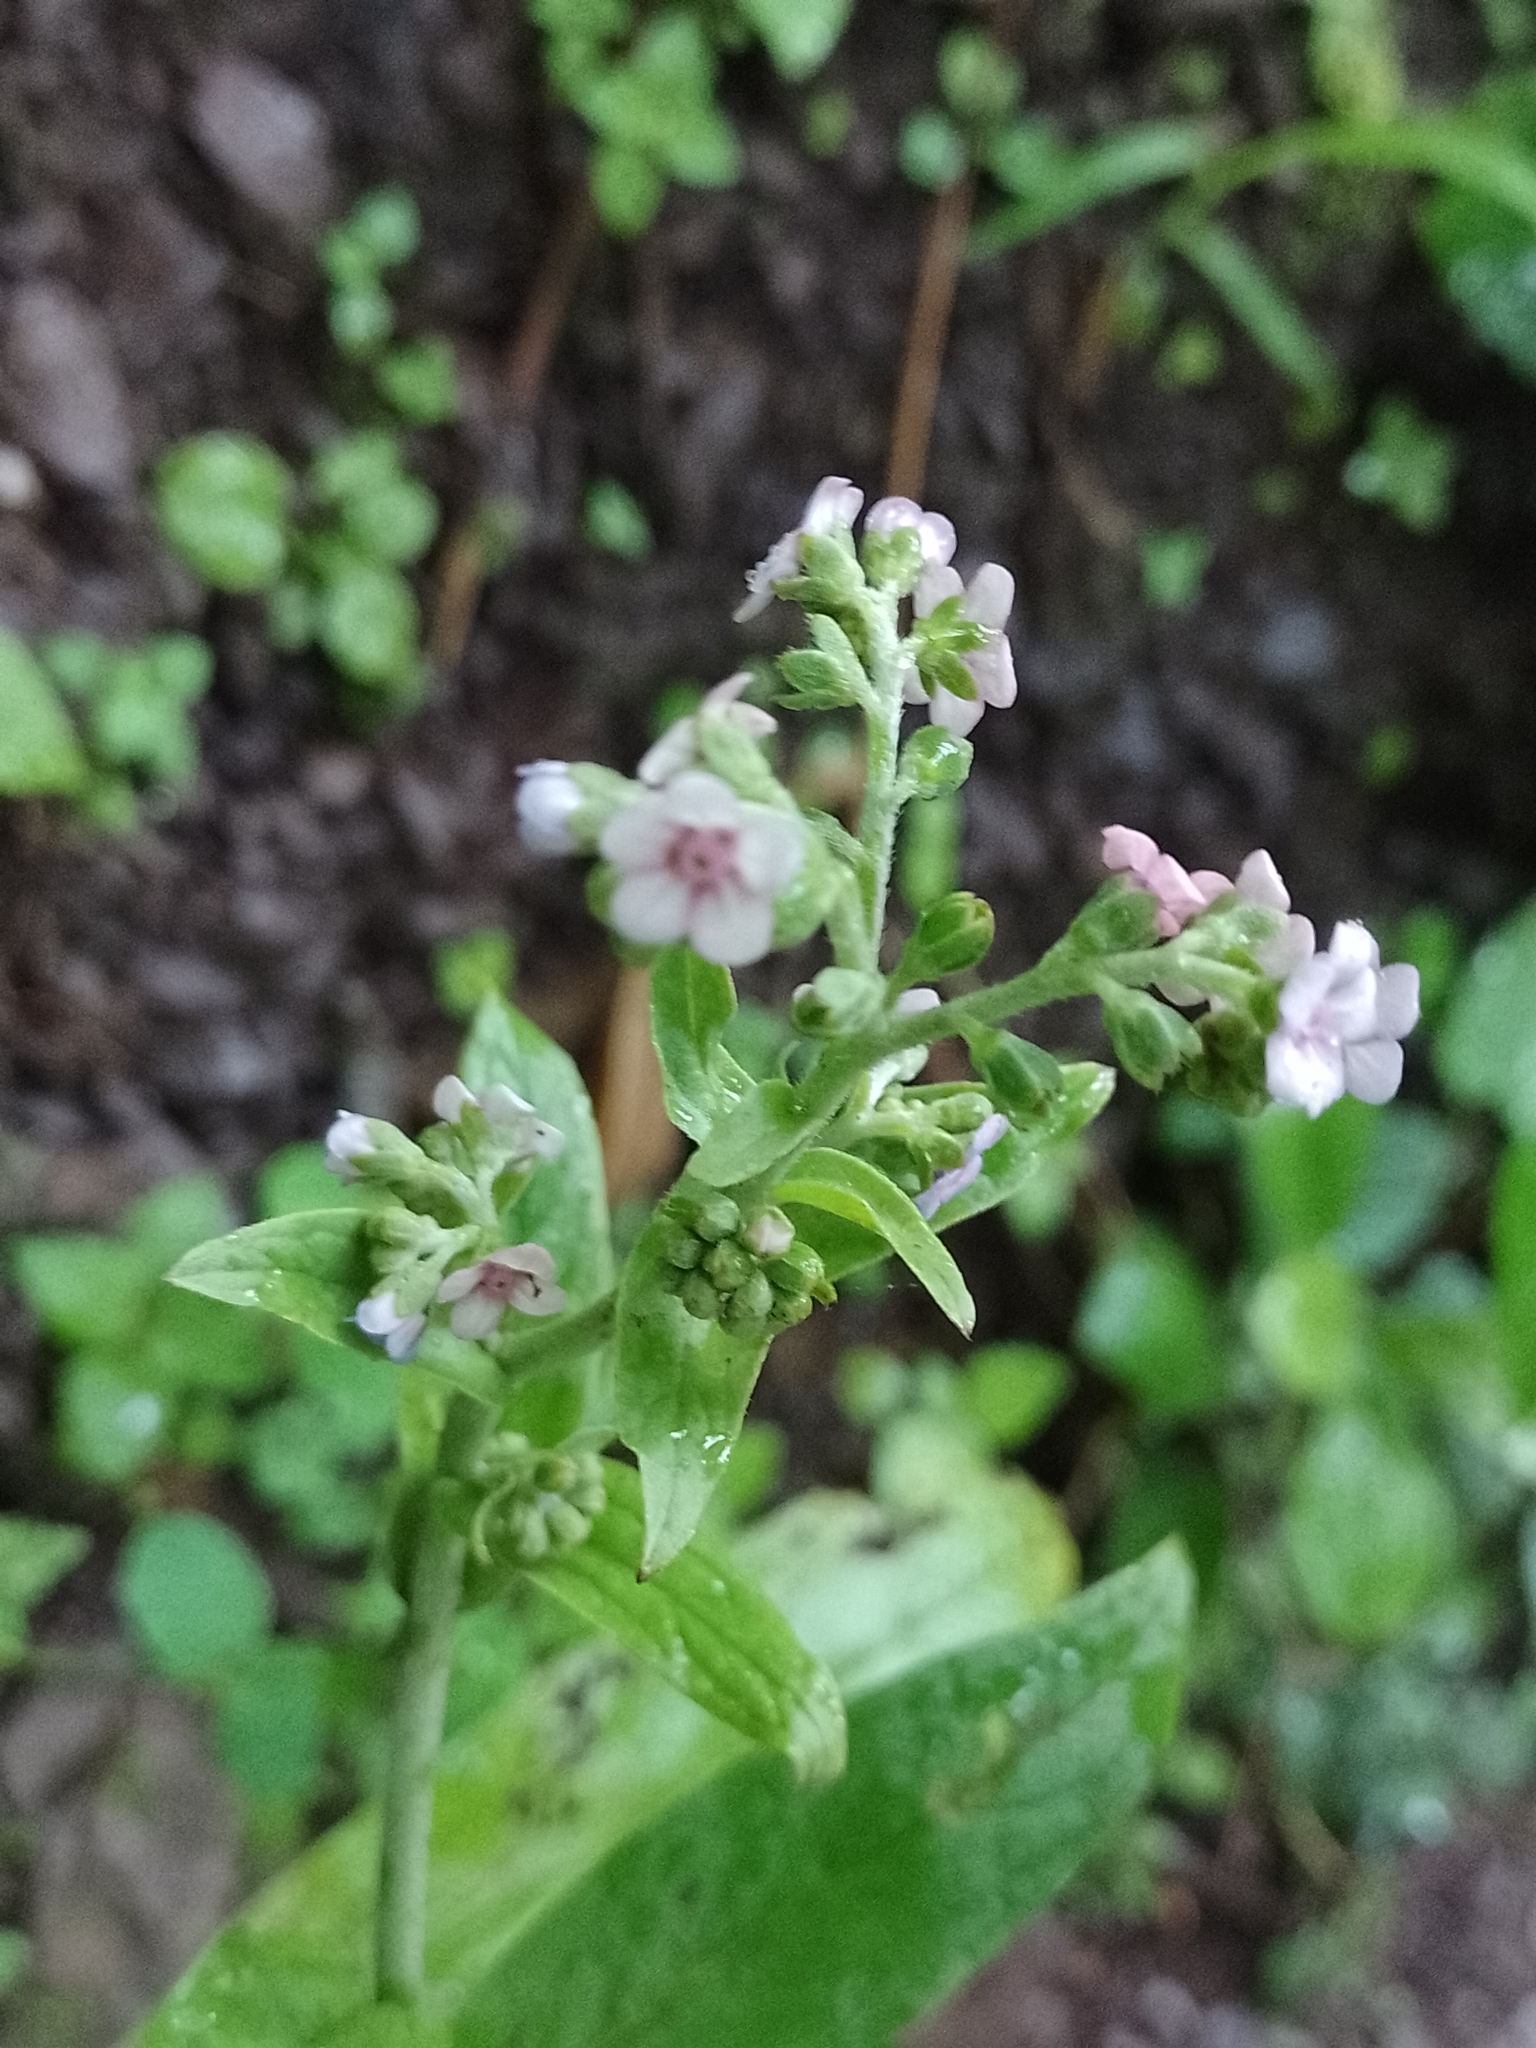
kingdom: Plantae
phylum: Tracheophyta
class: Magnoliopsida
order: Boraginales
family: Boraginaceae
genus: Cynoglossum
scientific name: Cynoglossum amabile
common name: Chinese hound's tongue
